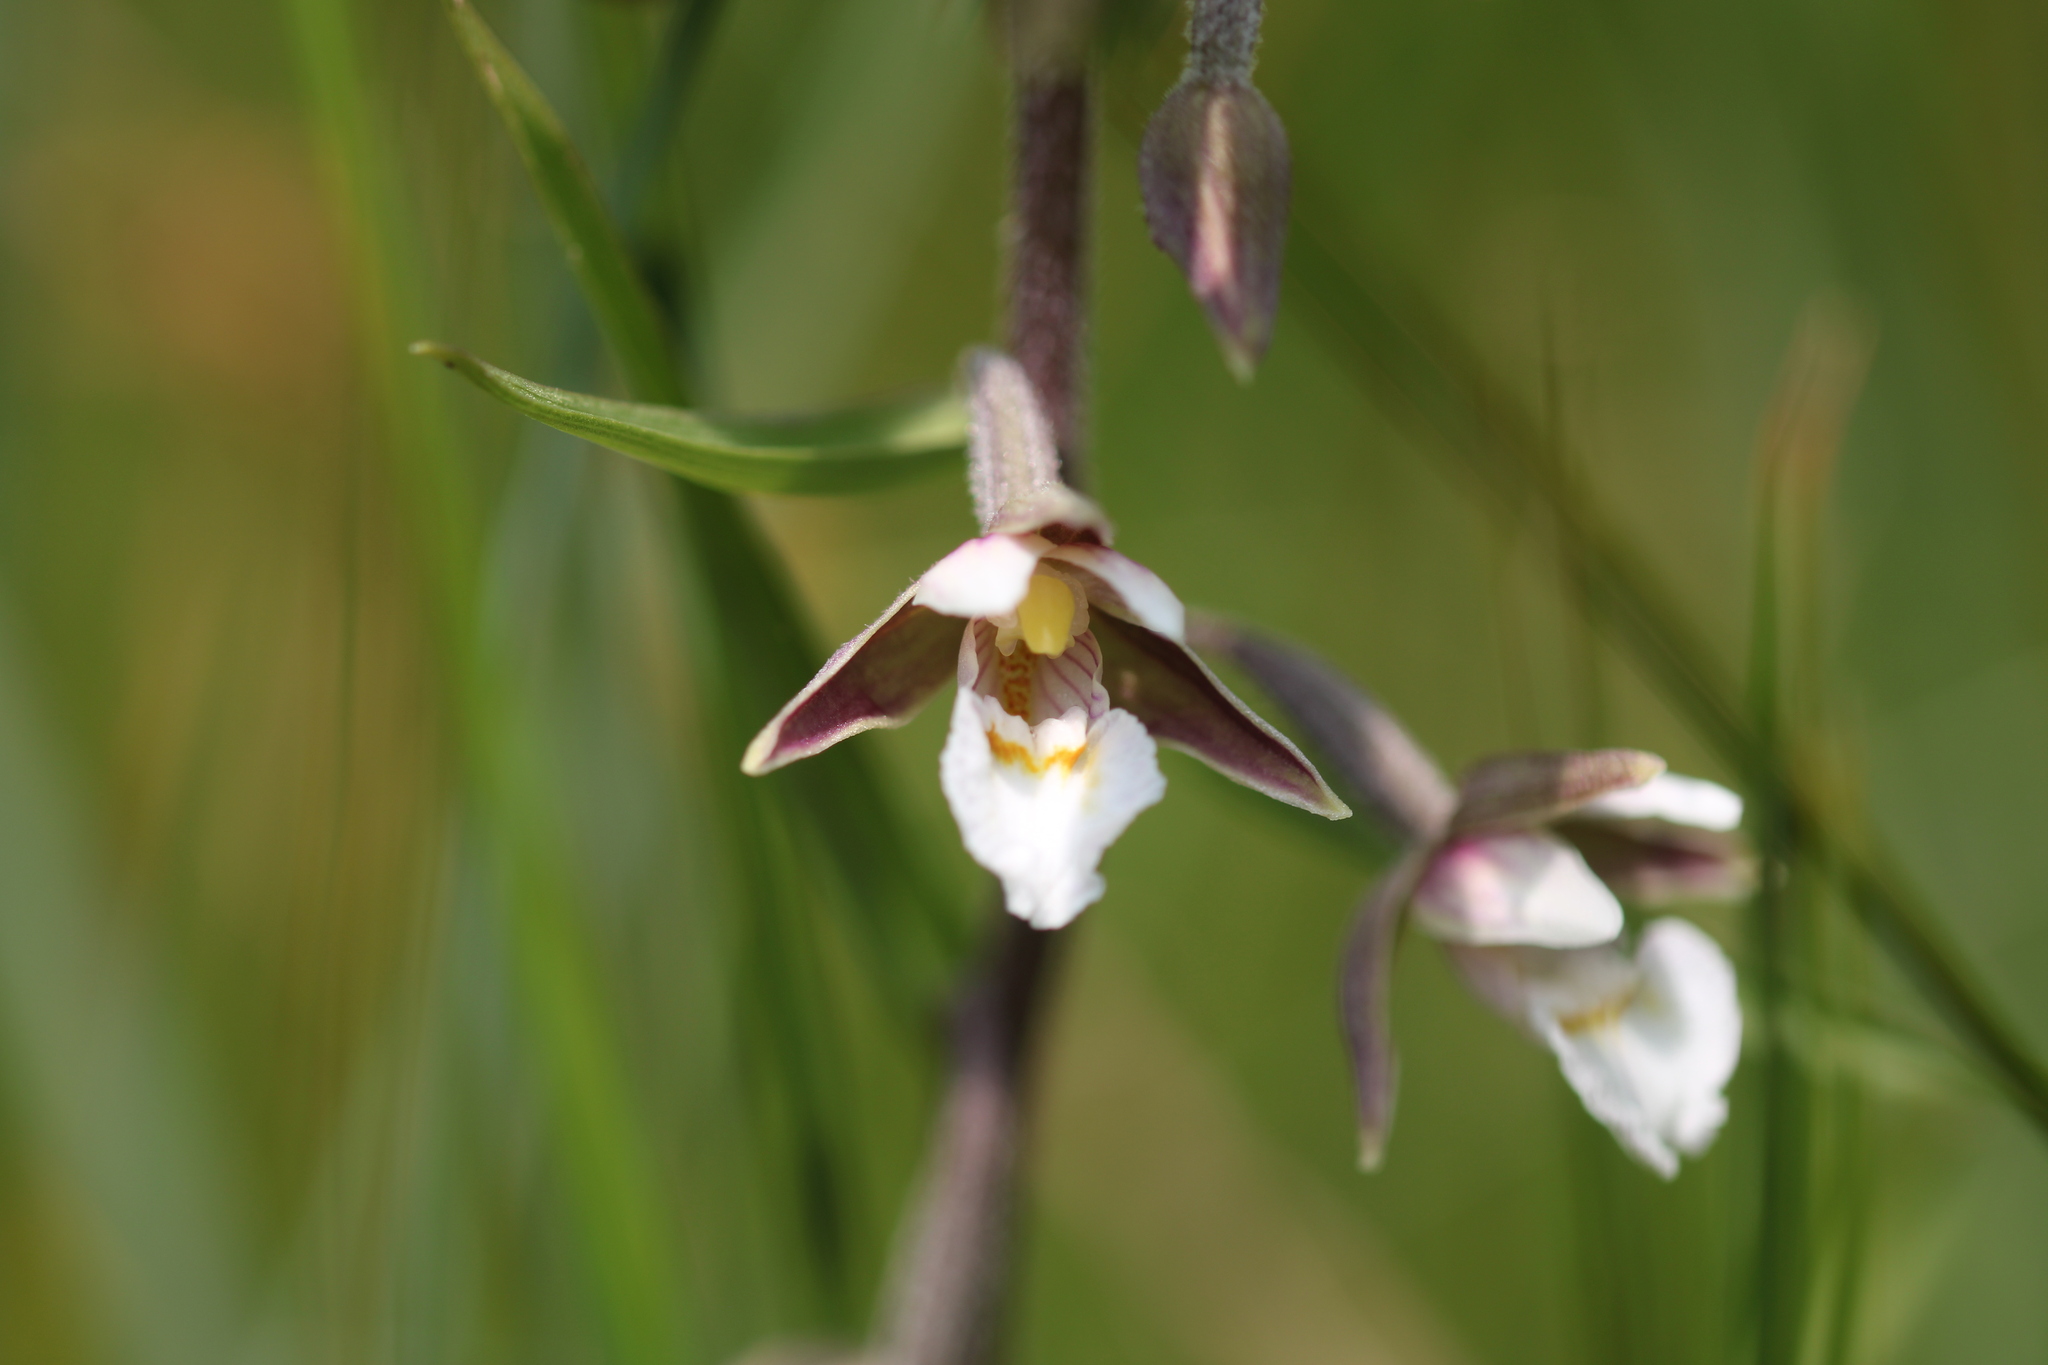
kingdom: Plantae
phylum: Tracheophyta
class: Liliopsida
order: Asparagales
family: Orchidaceae
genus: Epipactis
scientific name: Epipactis palustris
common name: Marsh helleborine
